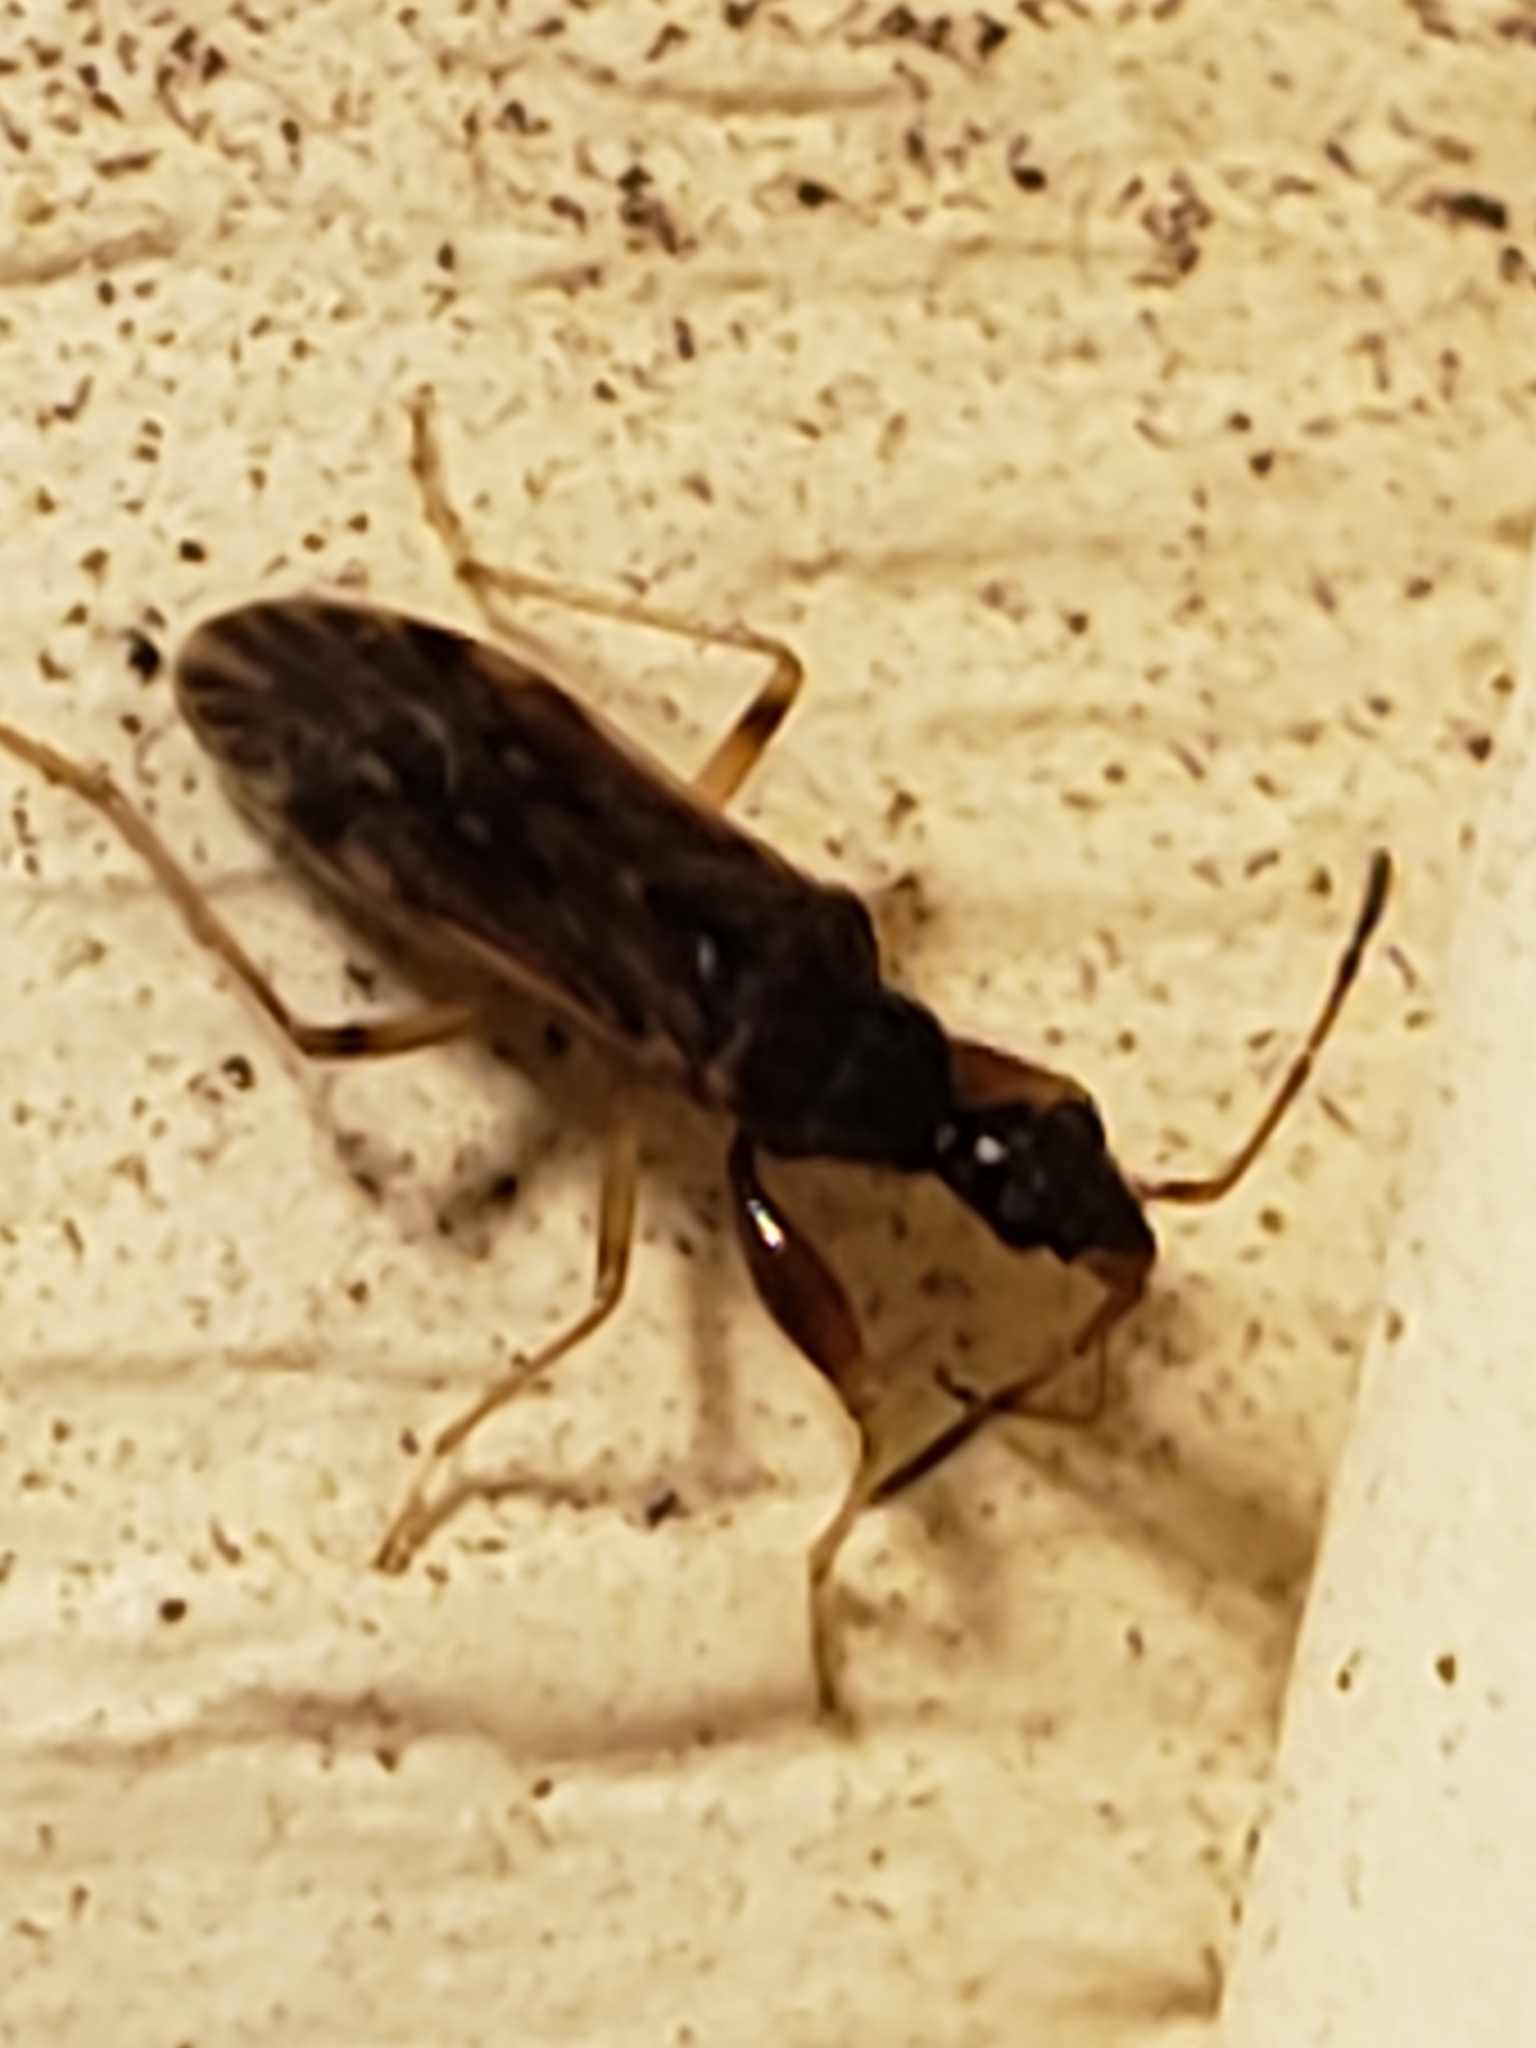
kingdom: Animalia
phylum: Arthropoda
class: Insecta
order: Hemiptera
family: Rhyparochromidae
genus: Heraeus
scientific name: Heraeus plebejus
